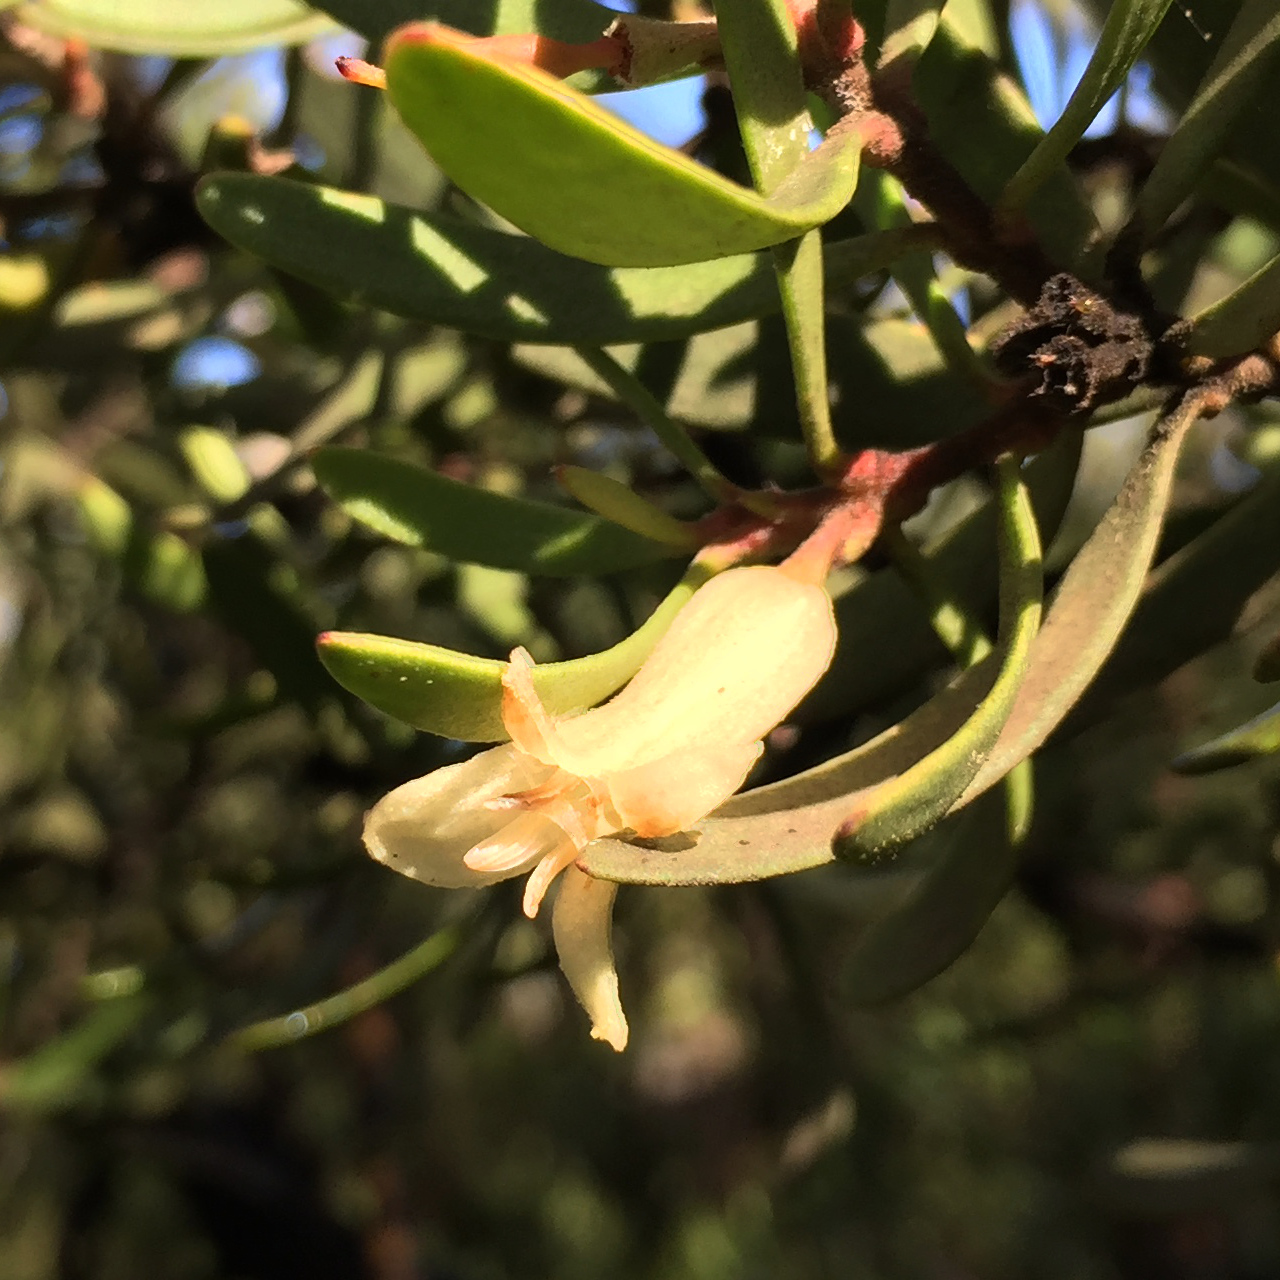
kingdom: Plantae
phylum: Tracheophyta
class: Magnoliopsida
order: Proteales
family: Proteaceae
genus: Persoonia
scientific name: Persoonia muelleri
